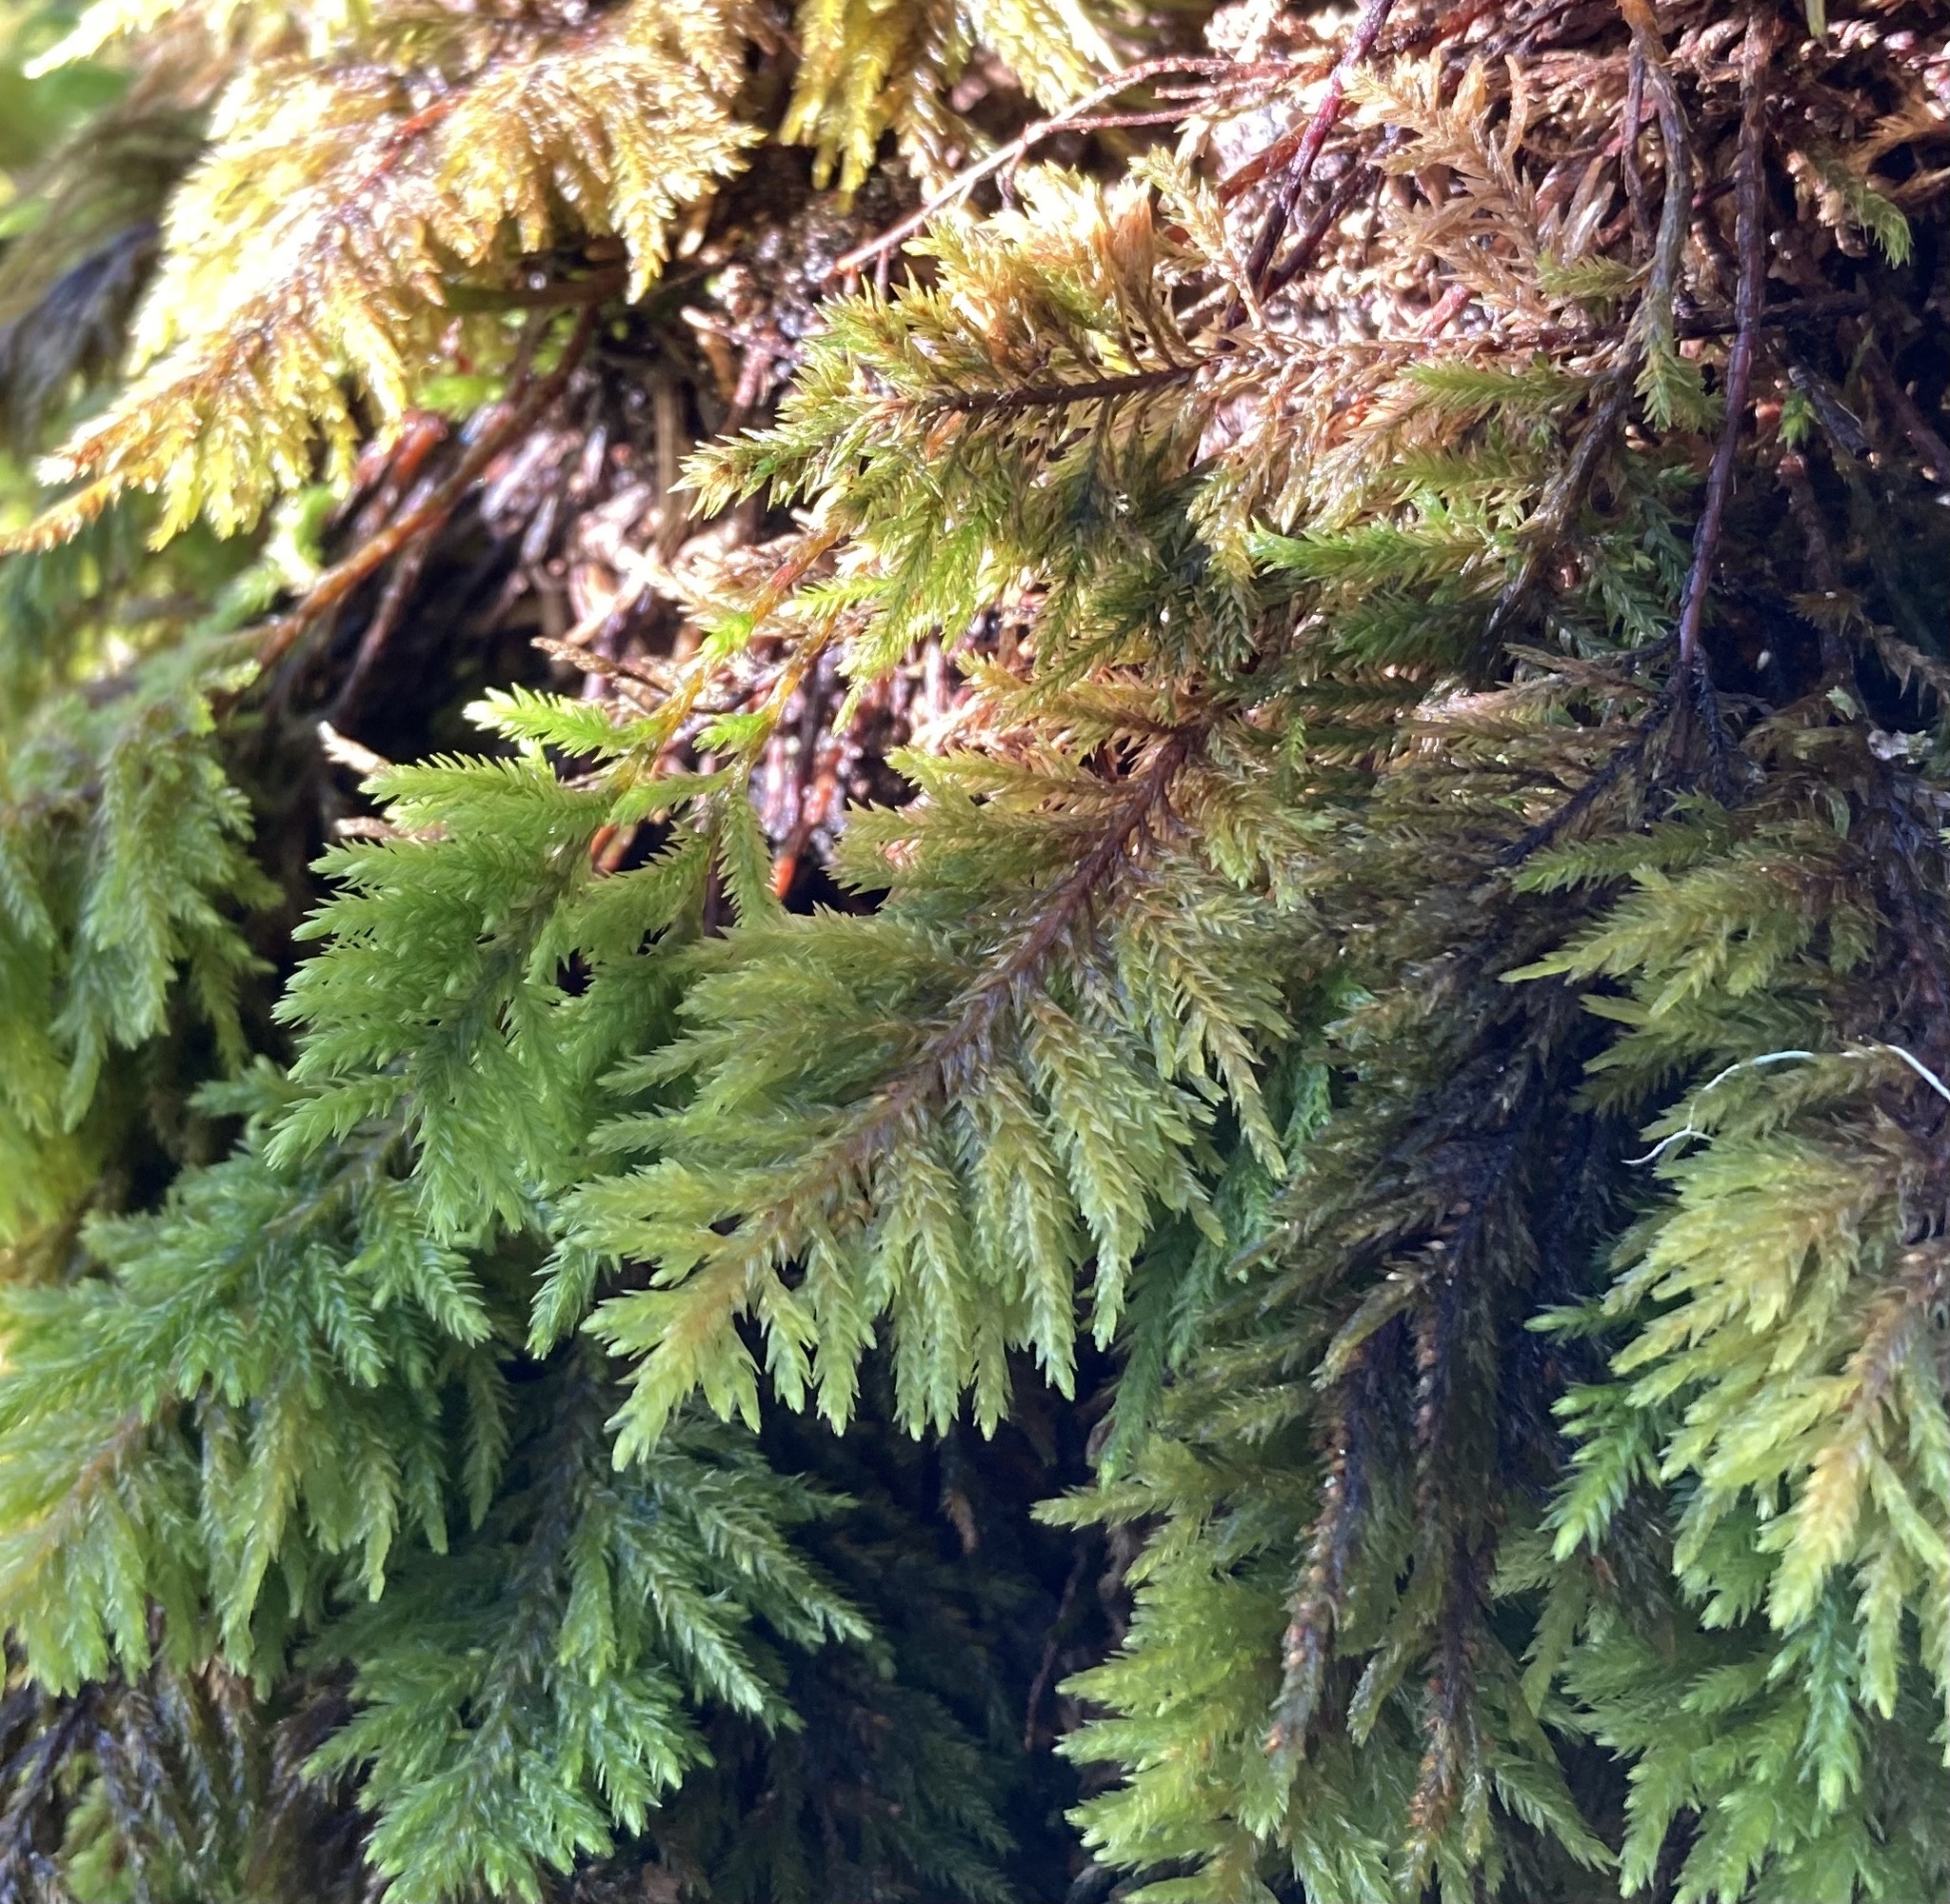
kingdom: Plantae
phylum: Bryophyta
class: Bryopsida
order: Hypnales
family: Cryphaeaceae
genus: Dendroalsia
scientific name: Dendroalsia abietina
